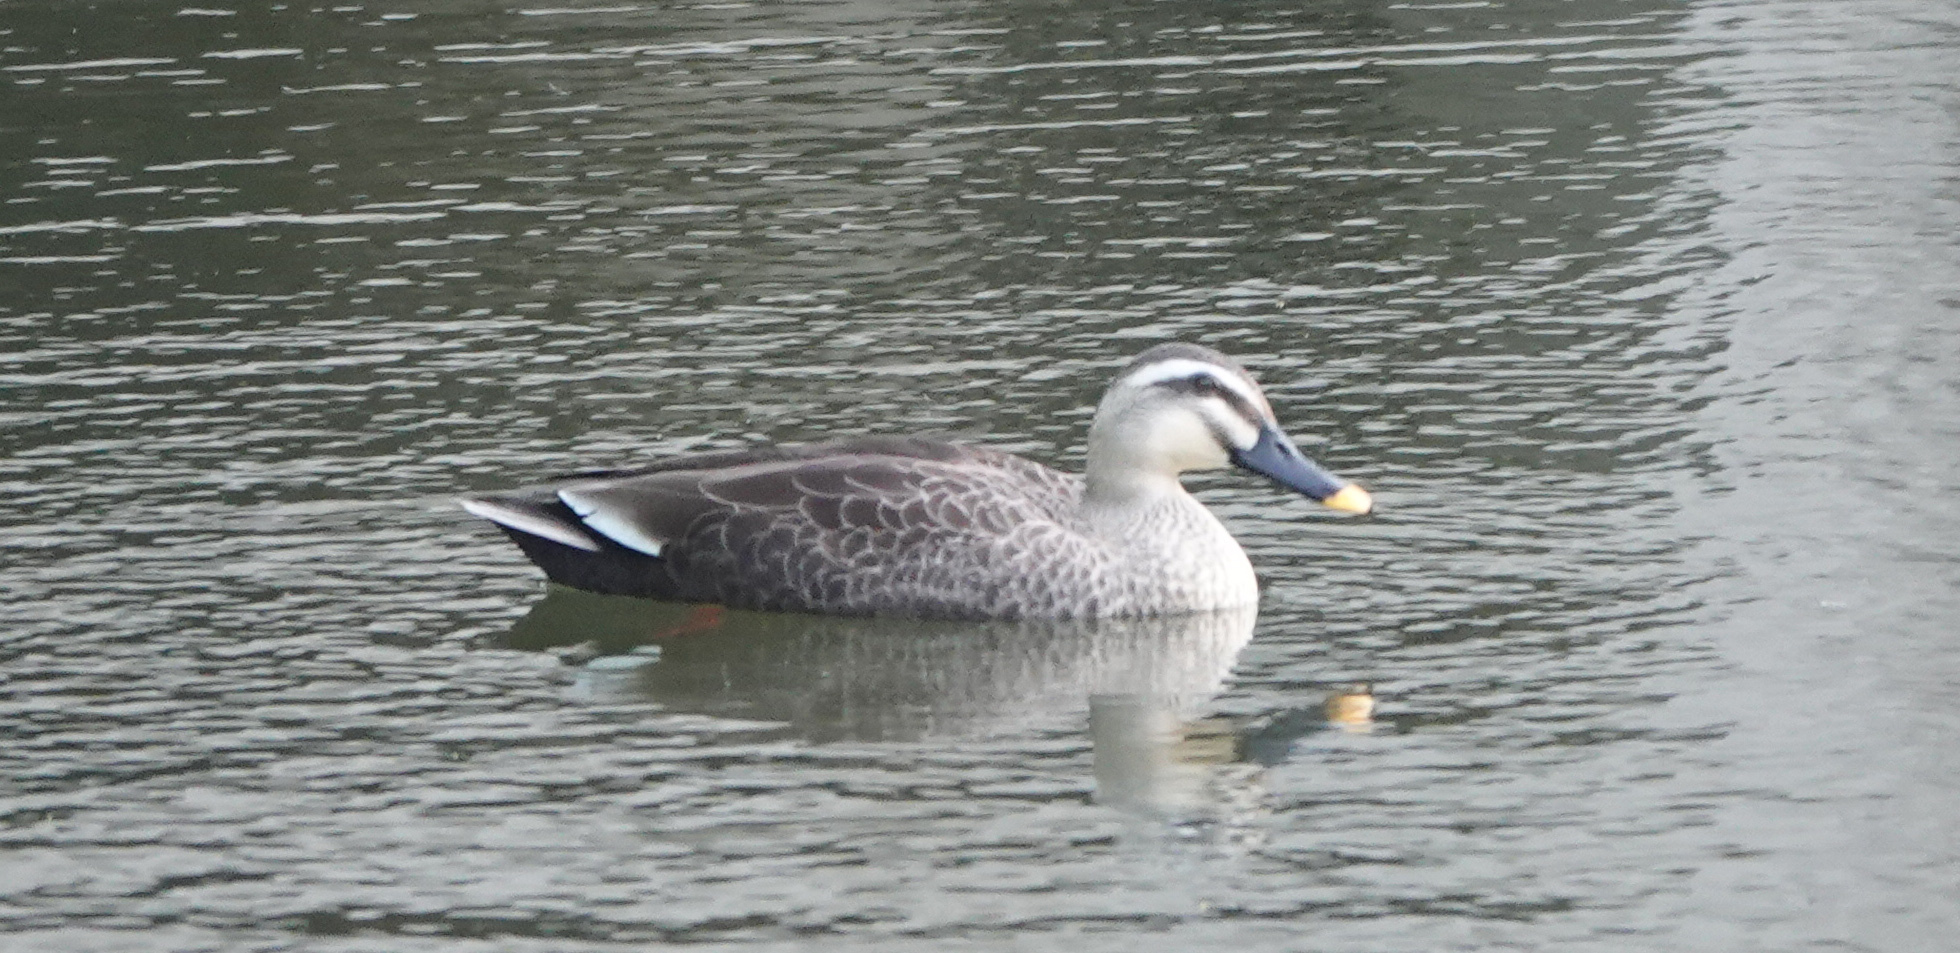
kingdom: Animalia
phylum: Chordata
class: Aves
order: Anseriformes
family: Anatidae
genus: Anas
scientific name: Anas zonorhyncha
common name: Eastern spot-billed duck
